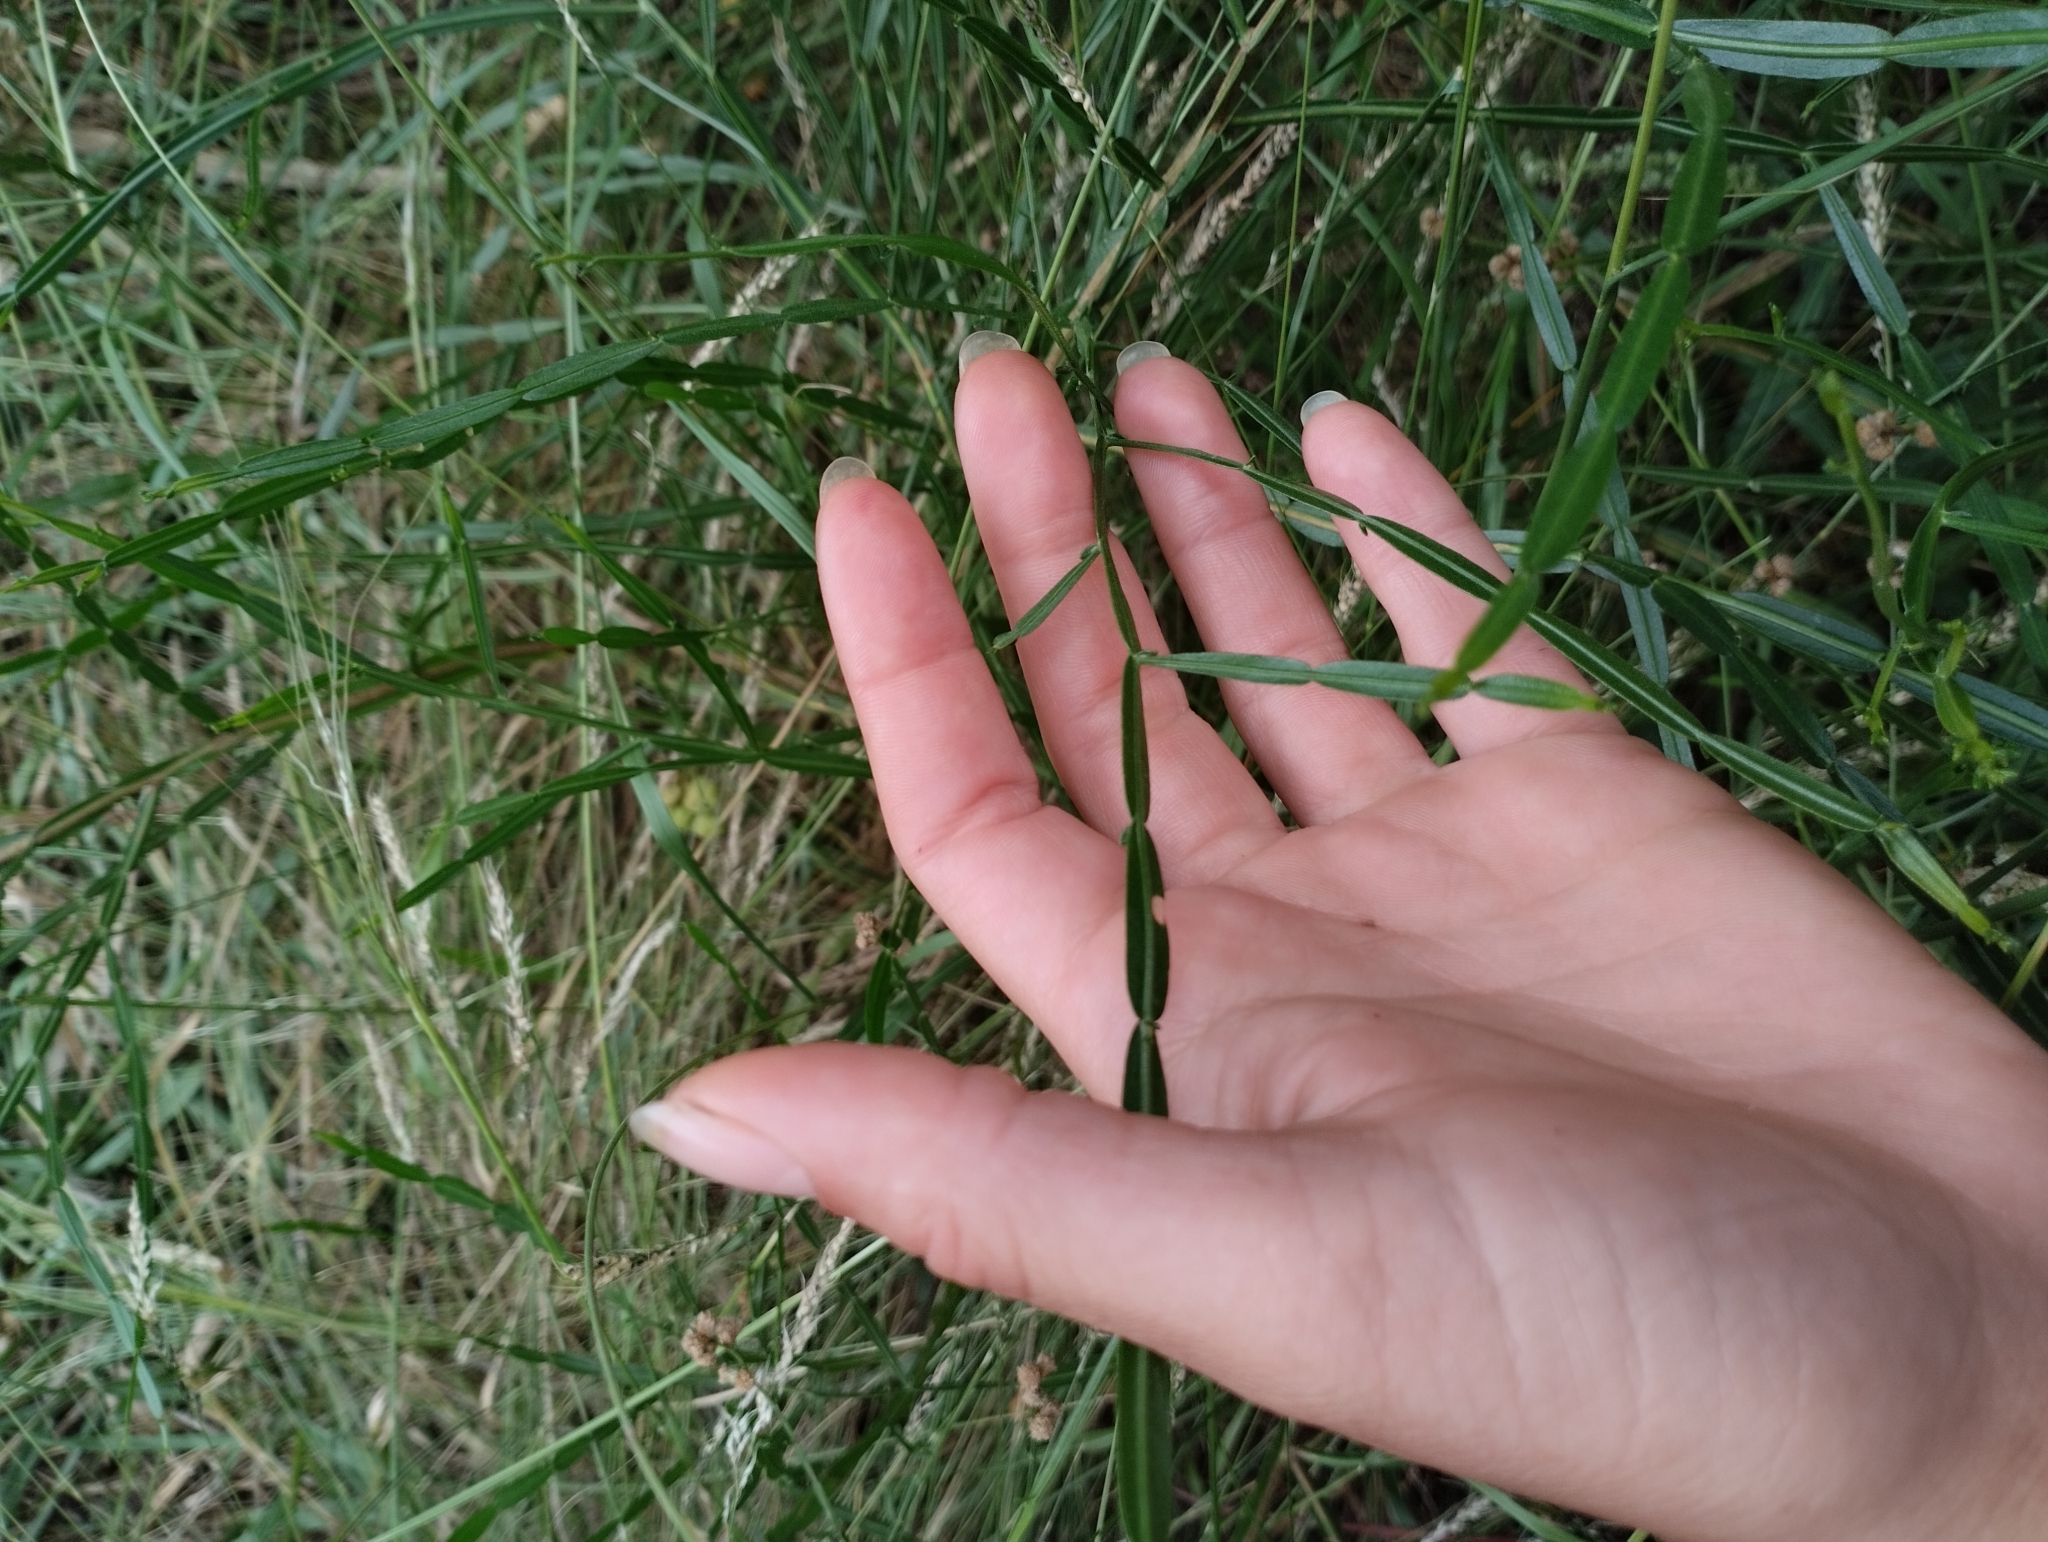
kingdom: Plantae
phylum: Tracheophyta
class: Magnoliopsida
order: Asterales
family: Asteraceae
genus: Baccharis
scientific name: Baccharis articulata
